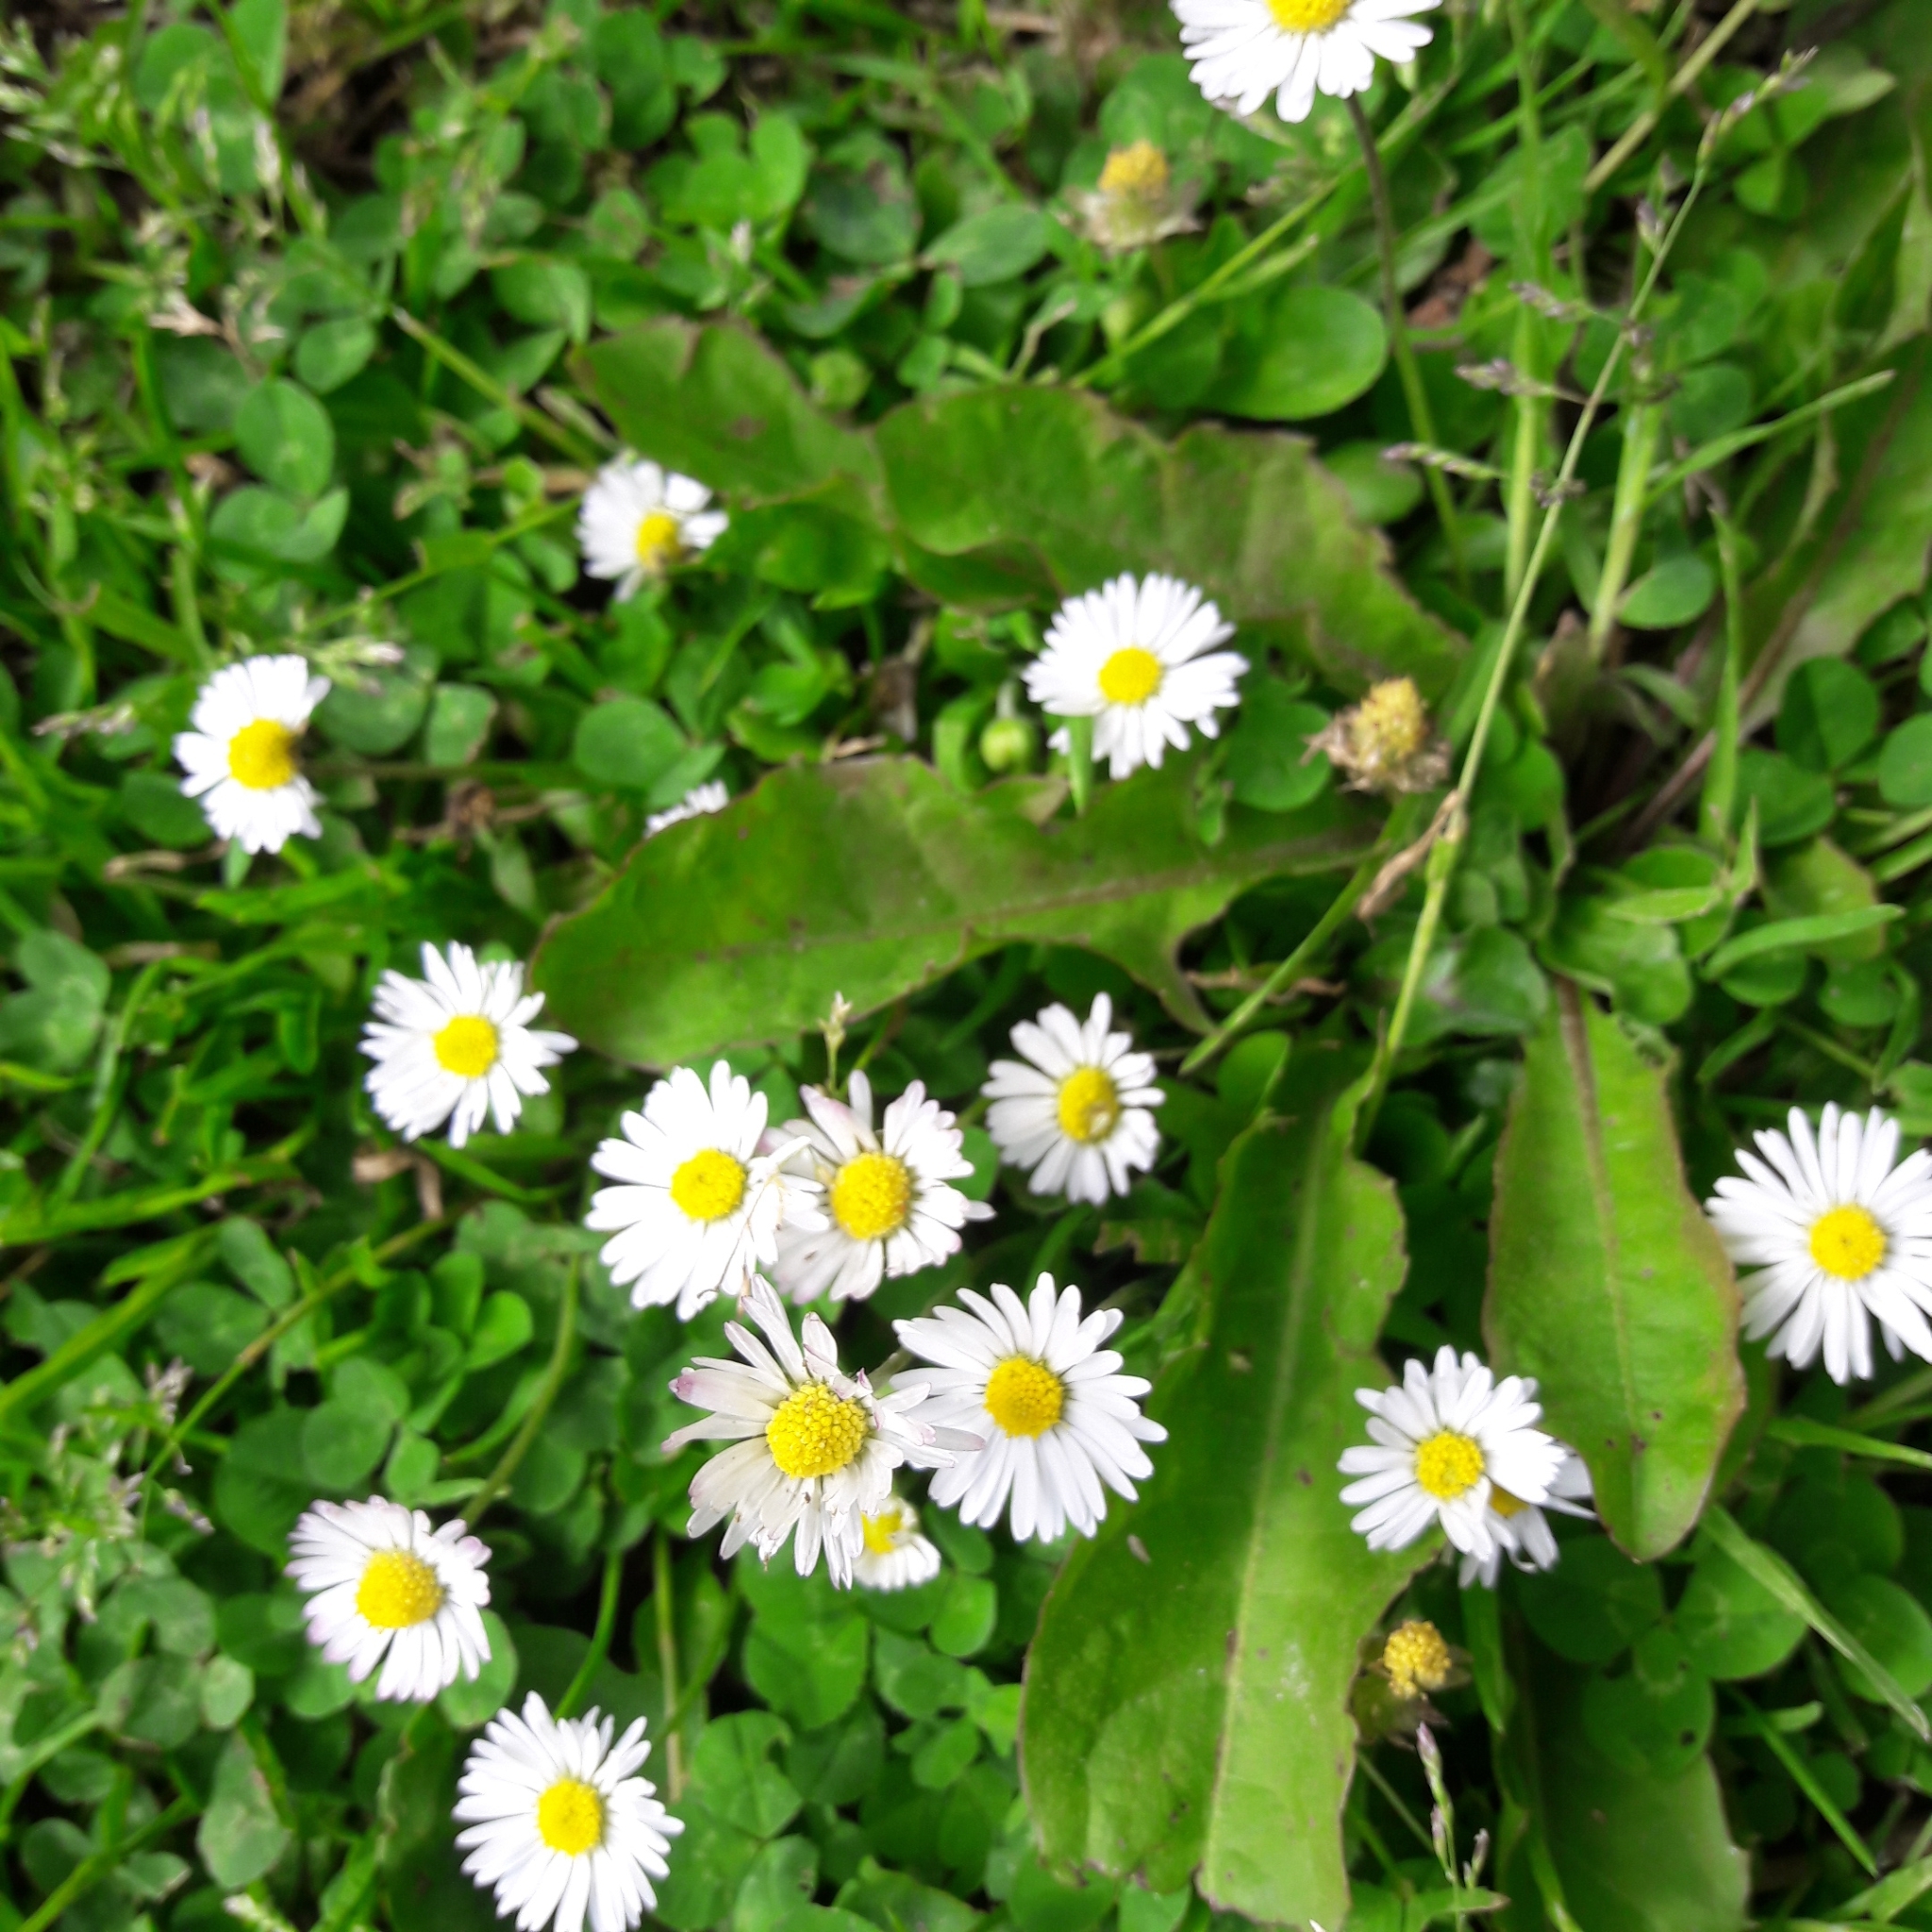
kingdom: Plantae
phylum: Tracheophyta
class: Magnoliopsida
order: Asterales
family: Asteraceae
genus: Bellis
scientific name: Bellis perennis
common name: Lawndaisy
